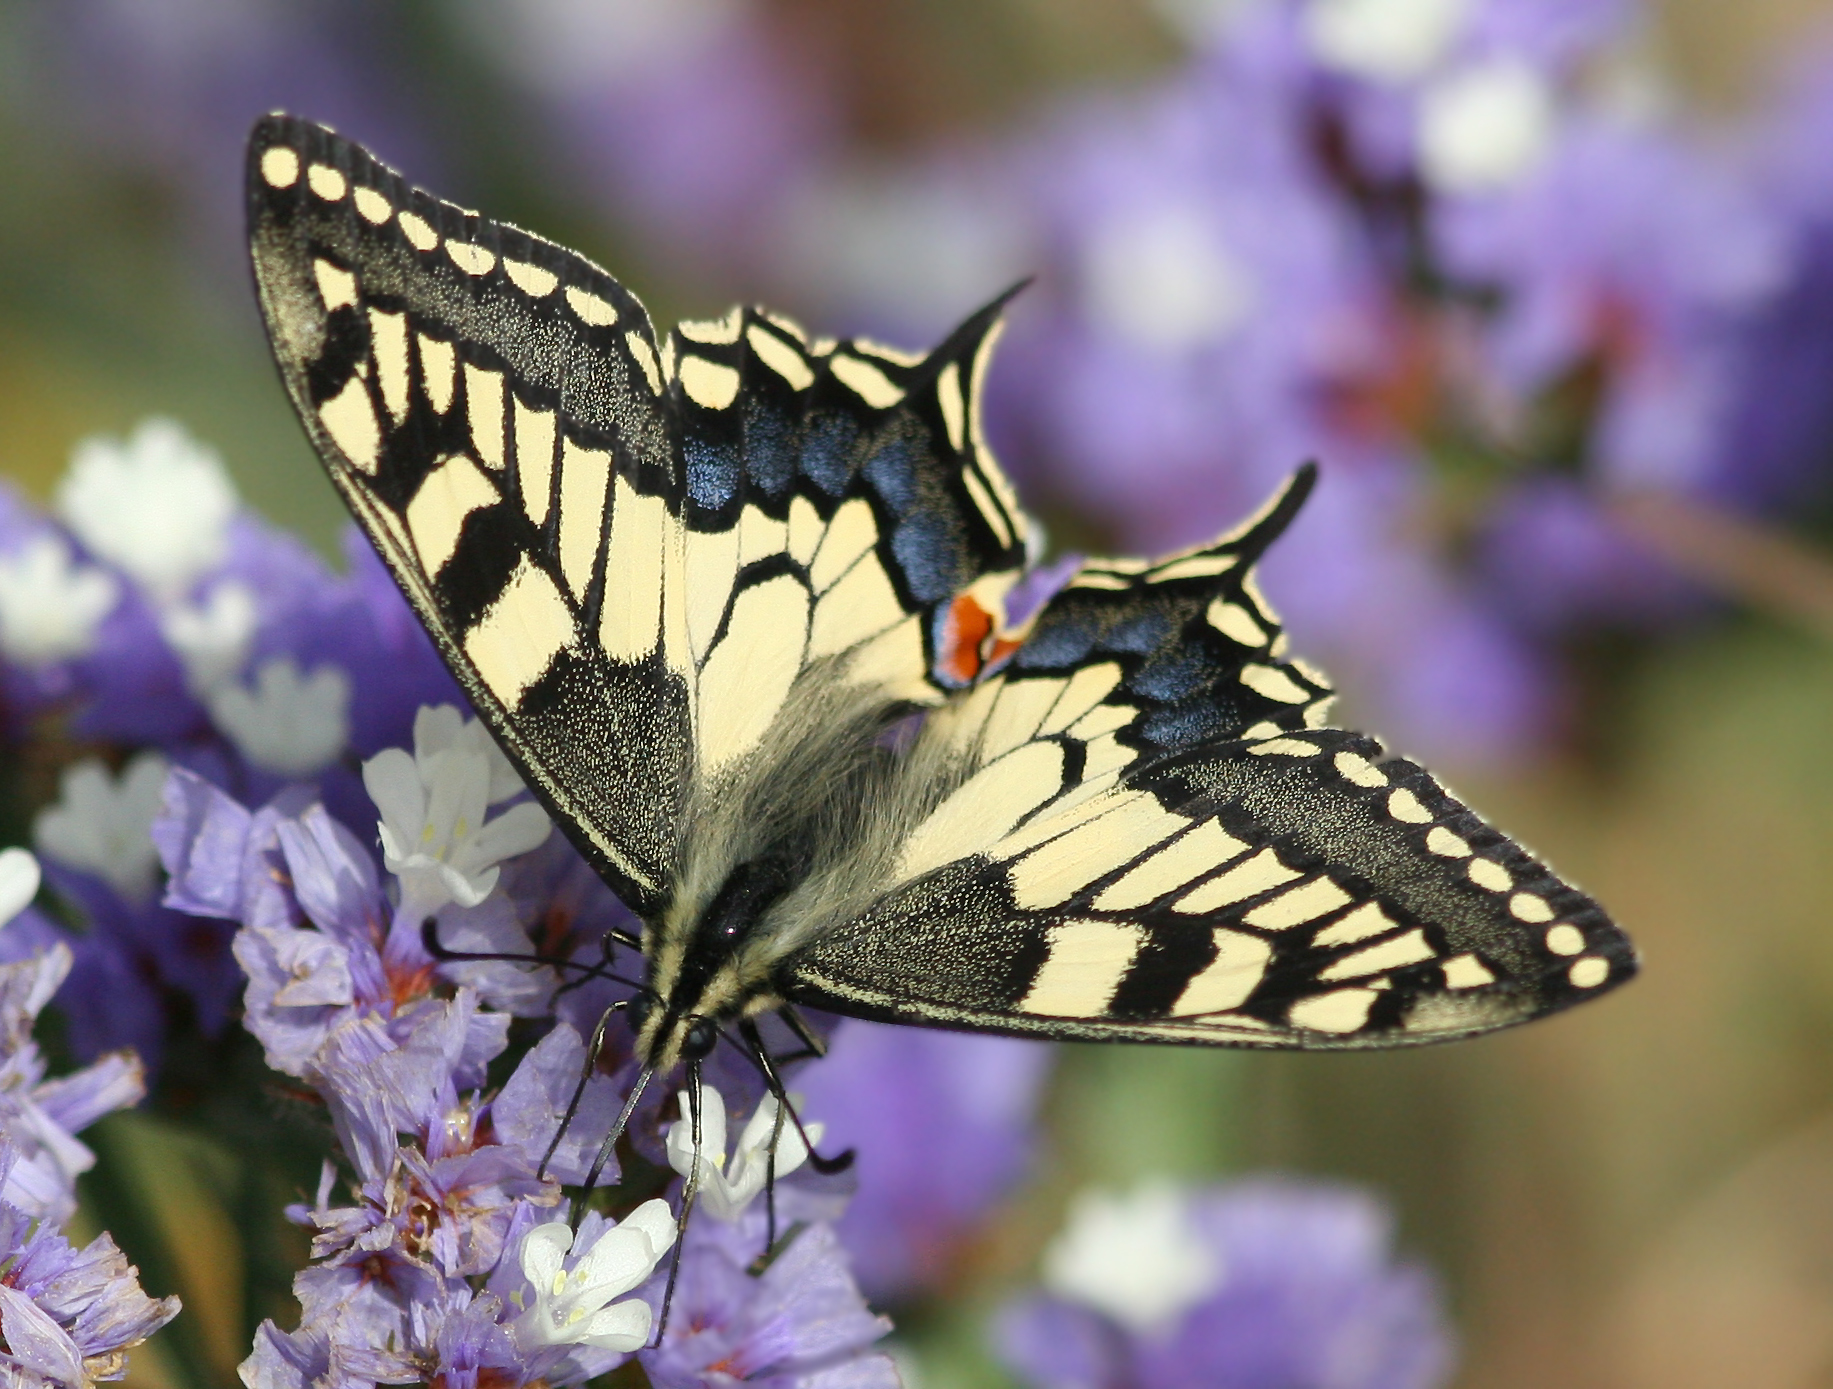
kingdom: Animalia
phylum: Arthropoda
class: Insecta
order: Lepidoptera
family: Papilionidae
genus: Papilio
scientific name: Papilio machaon
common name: Swallowtail
